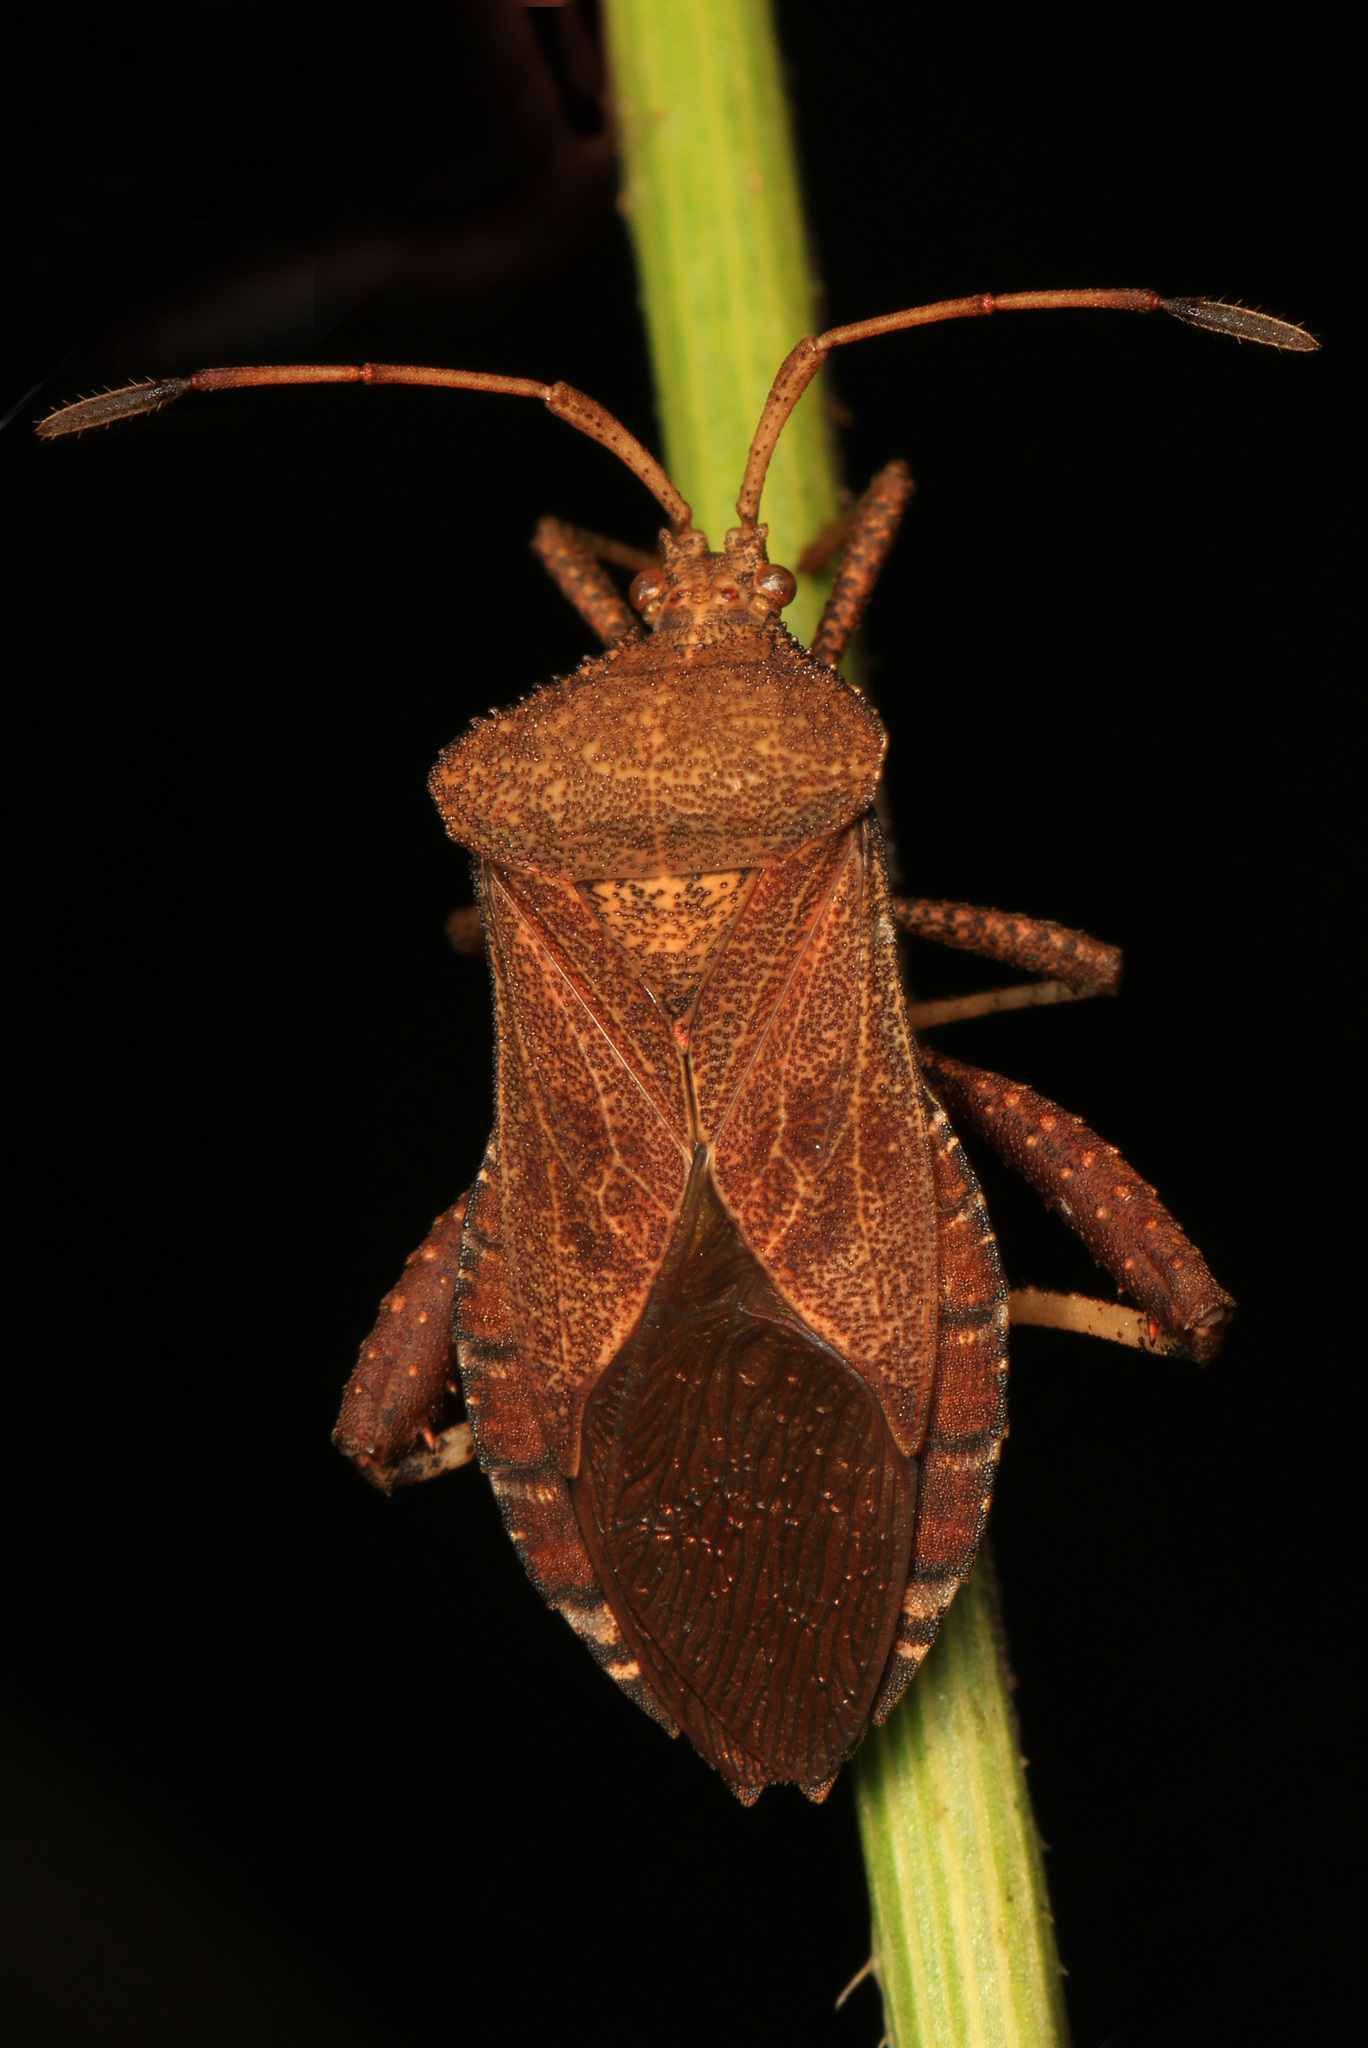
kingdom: Animalia
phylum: Arthropoda
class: Insecta
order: Hemiptera
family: Coreidae
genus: Euthochtha
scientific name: Euthochtha galeator
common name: Helmeted squash bug
